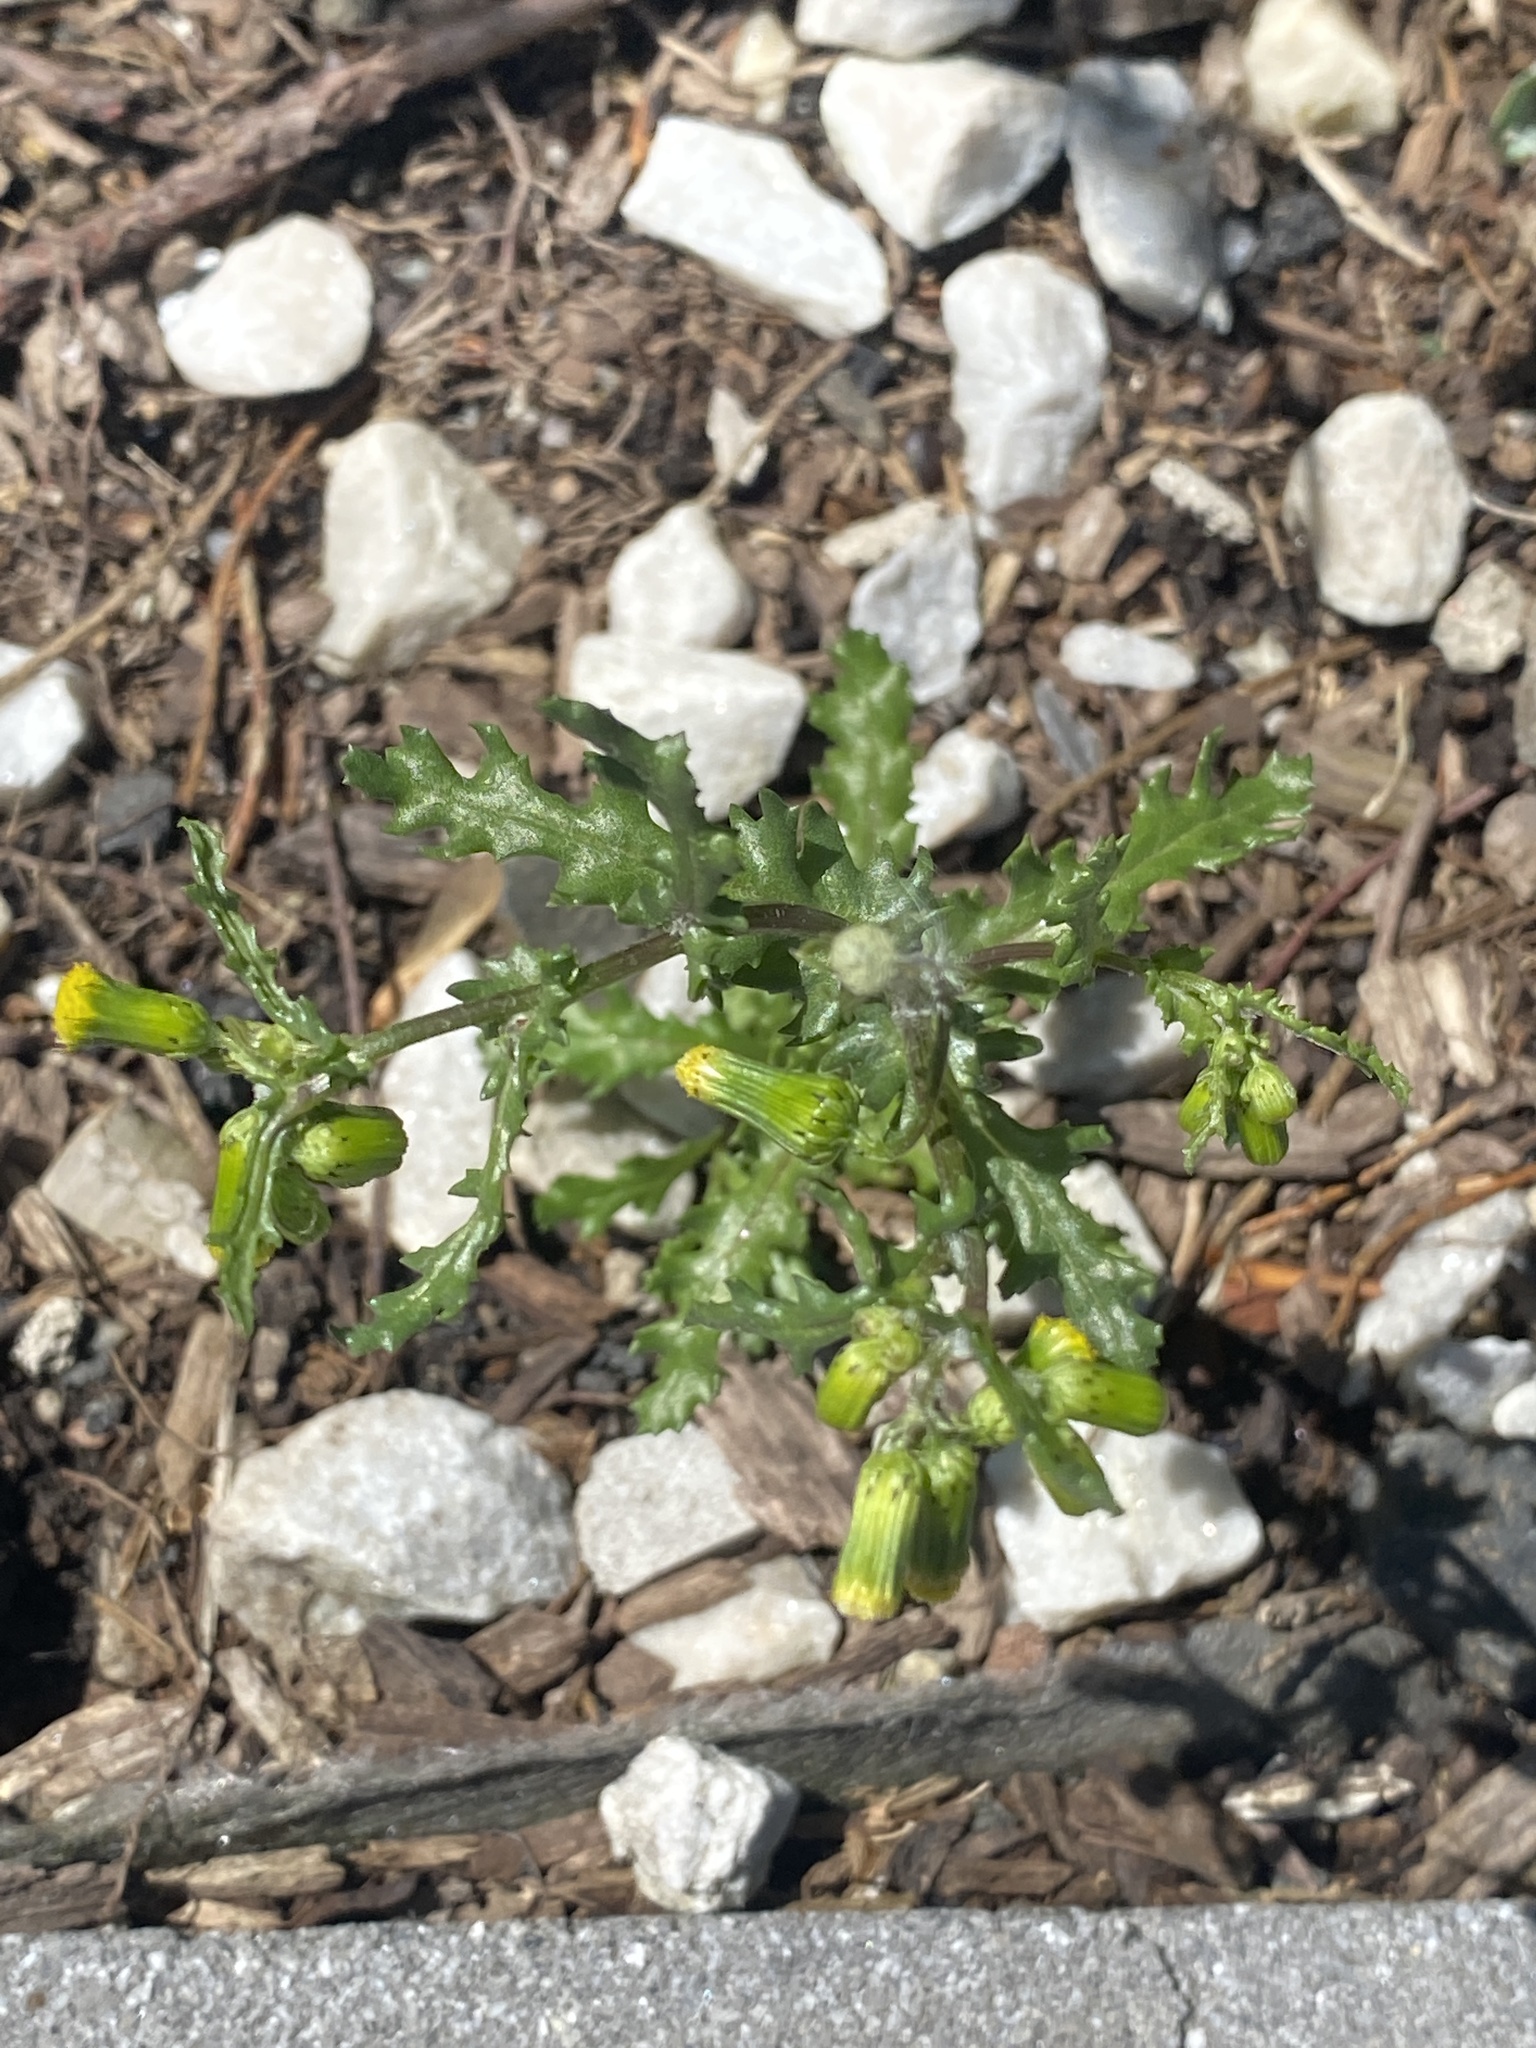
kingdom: Plantae
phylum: Tracheophyta
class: Magnoliopsida
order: Asterales
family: Asteraceae
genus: Senecio
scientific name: Senecio vulgaris
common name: Old-man-in-the-spring
